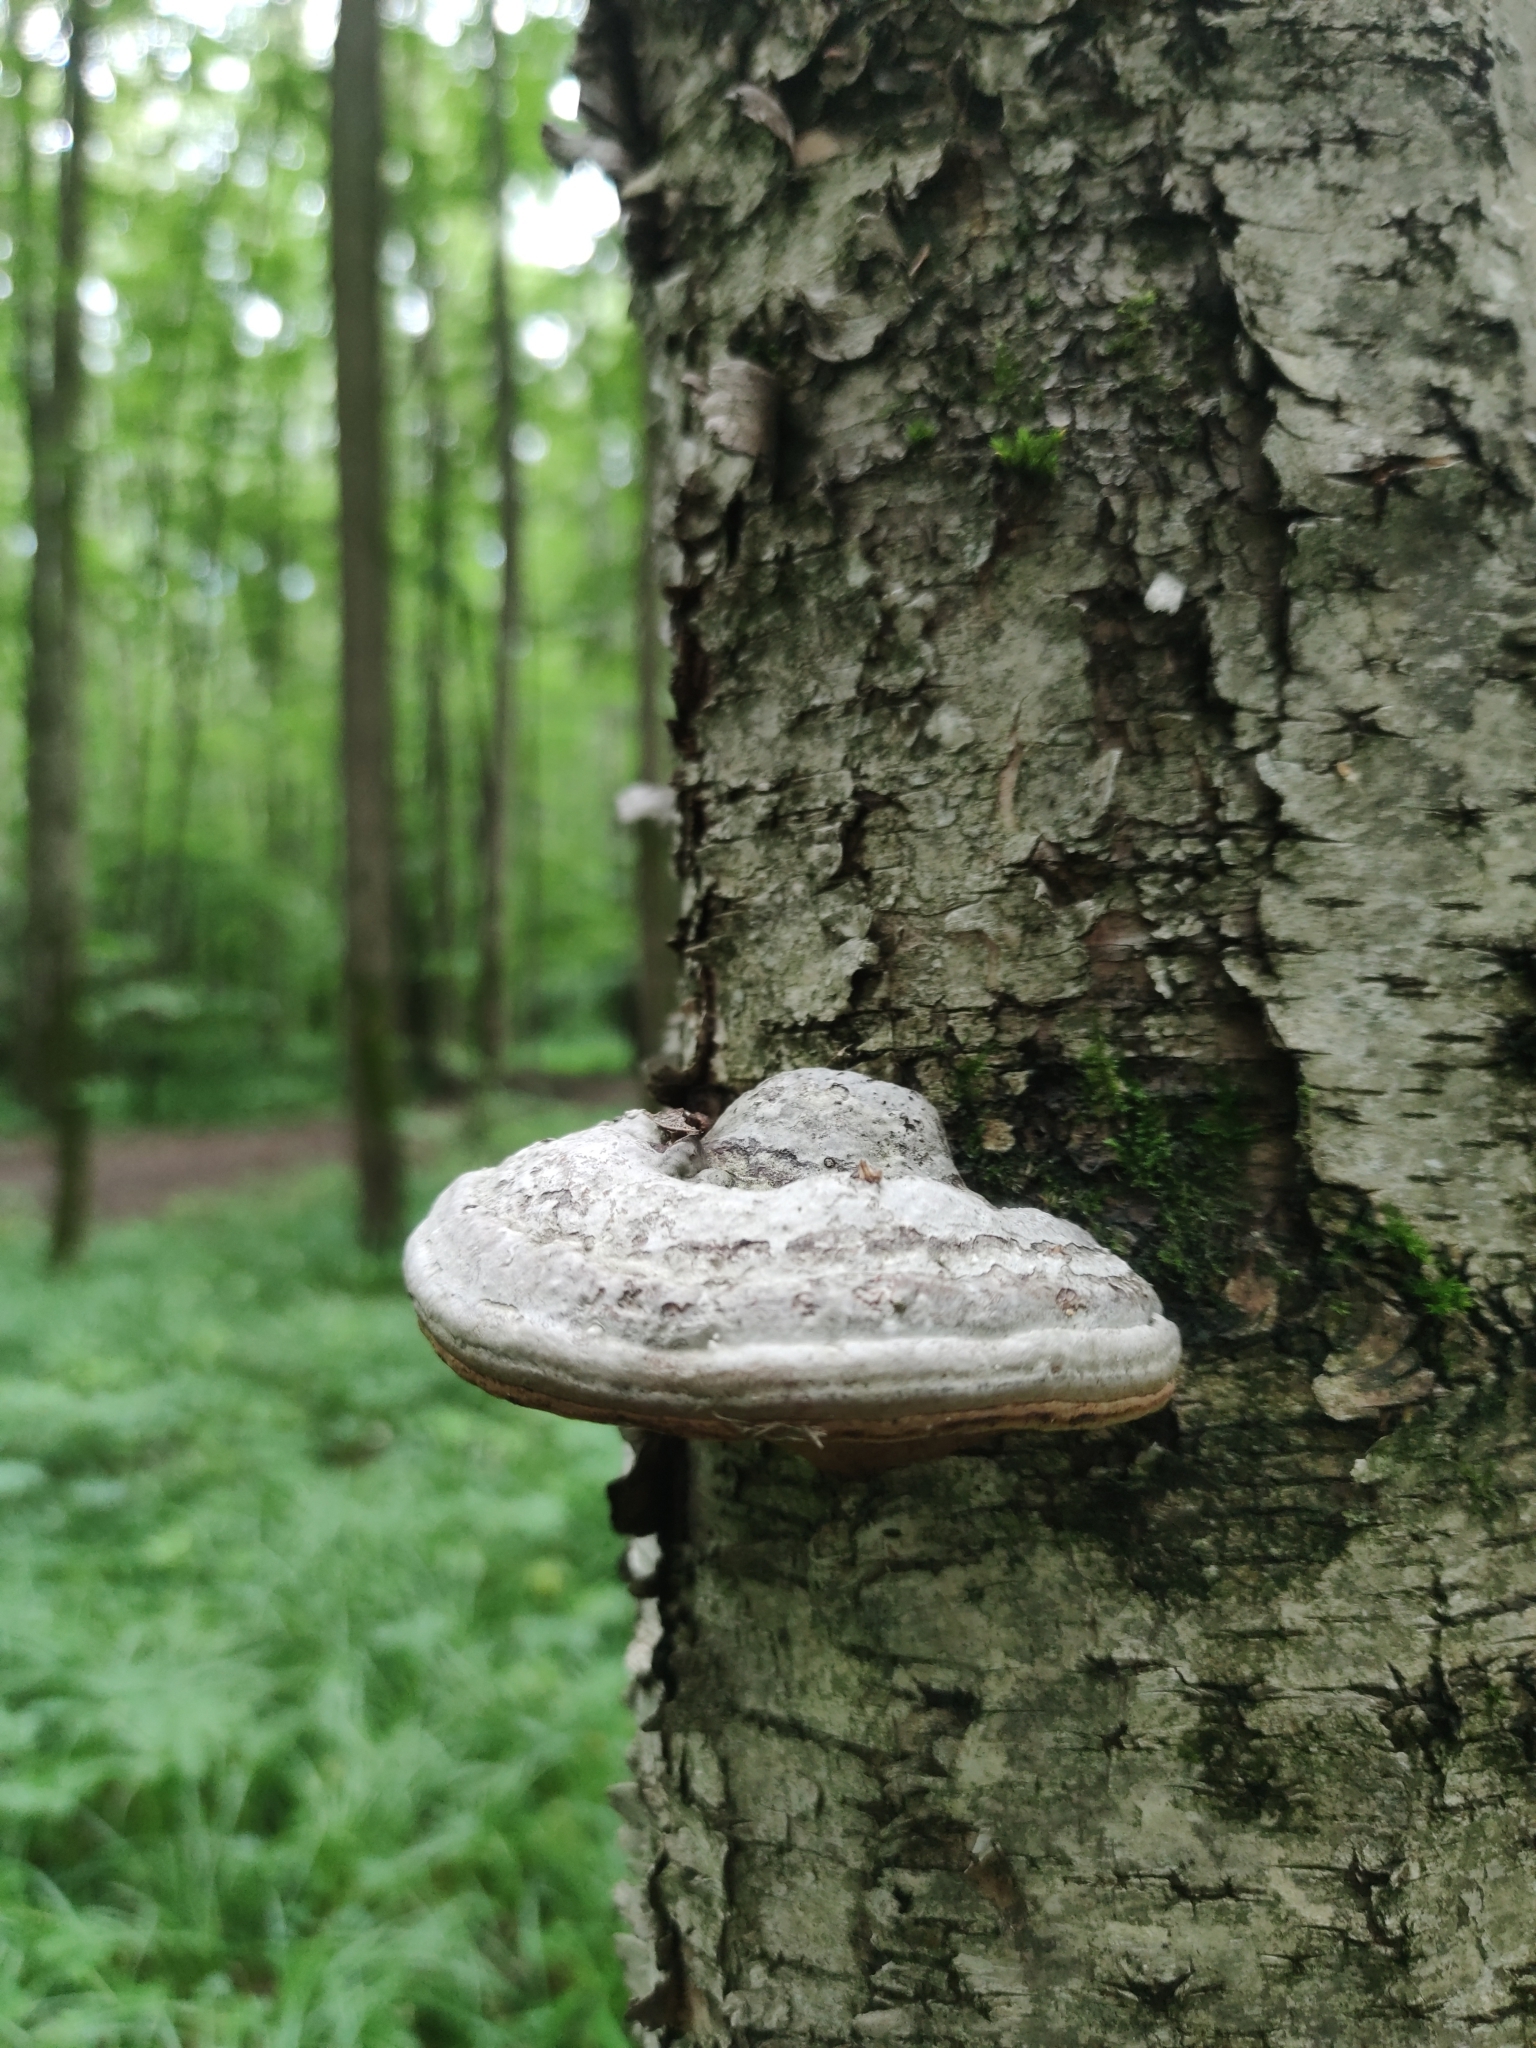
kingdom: Fungi
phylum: Basidiomycota
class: Agaricomycetes
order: Polyporales
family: Polyporaceae
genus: Fomes
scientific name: Fomes fomentarius
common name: Hoof fungus
